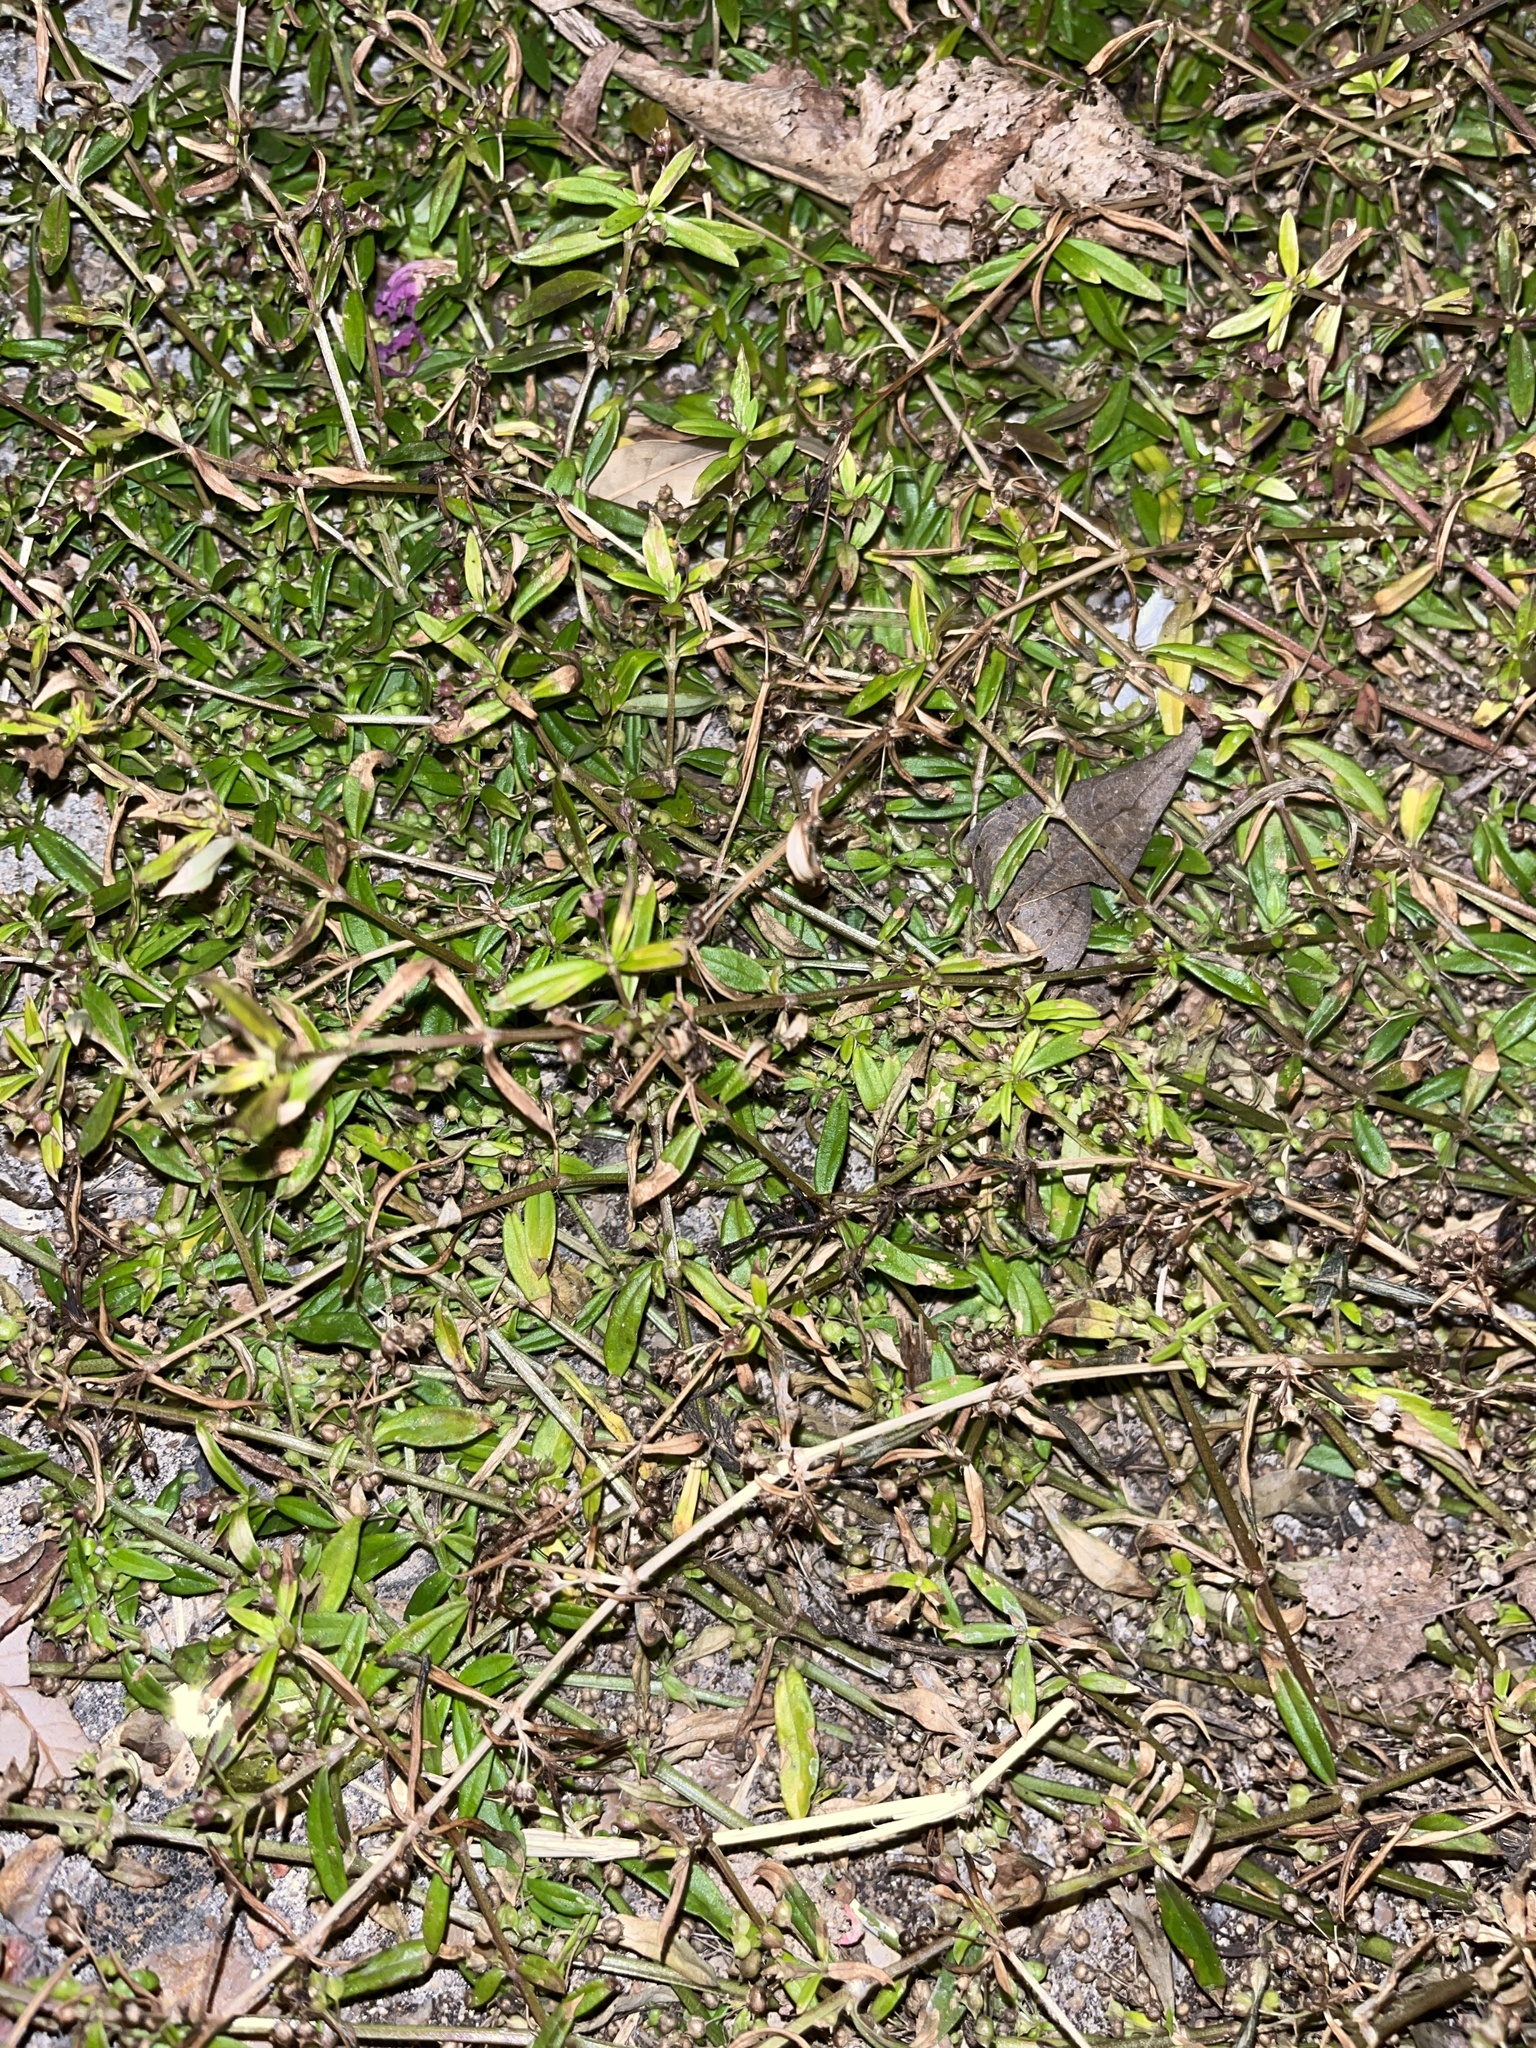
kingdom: Plantae
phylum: Tracheophyta
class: Magnoliopsida
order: Gentianales
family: Rubiaceae
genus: Oldenlandia
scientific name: Oldenlandia corymbosa
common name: Flat-top mille graines
